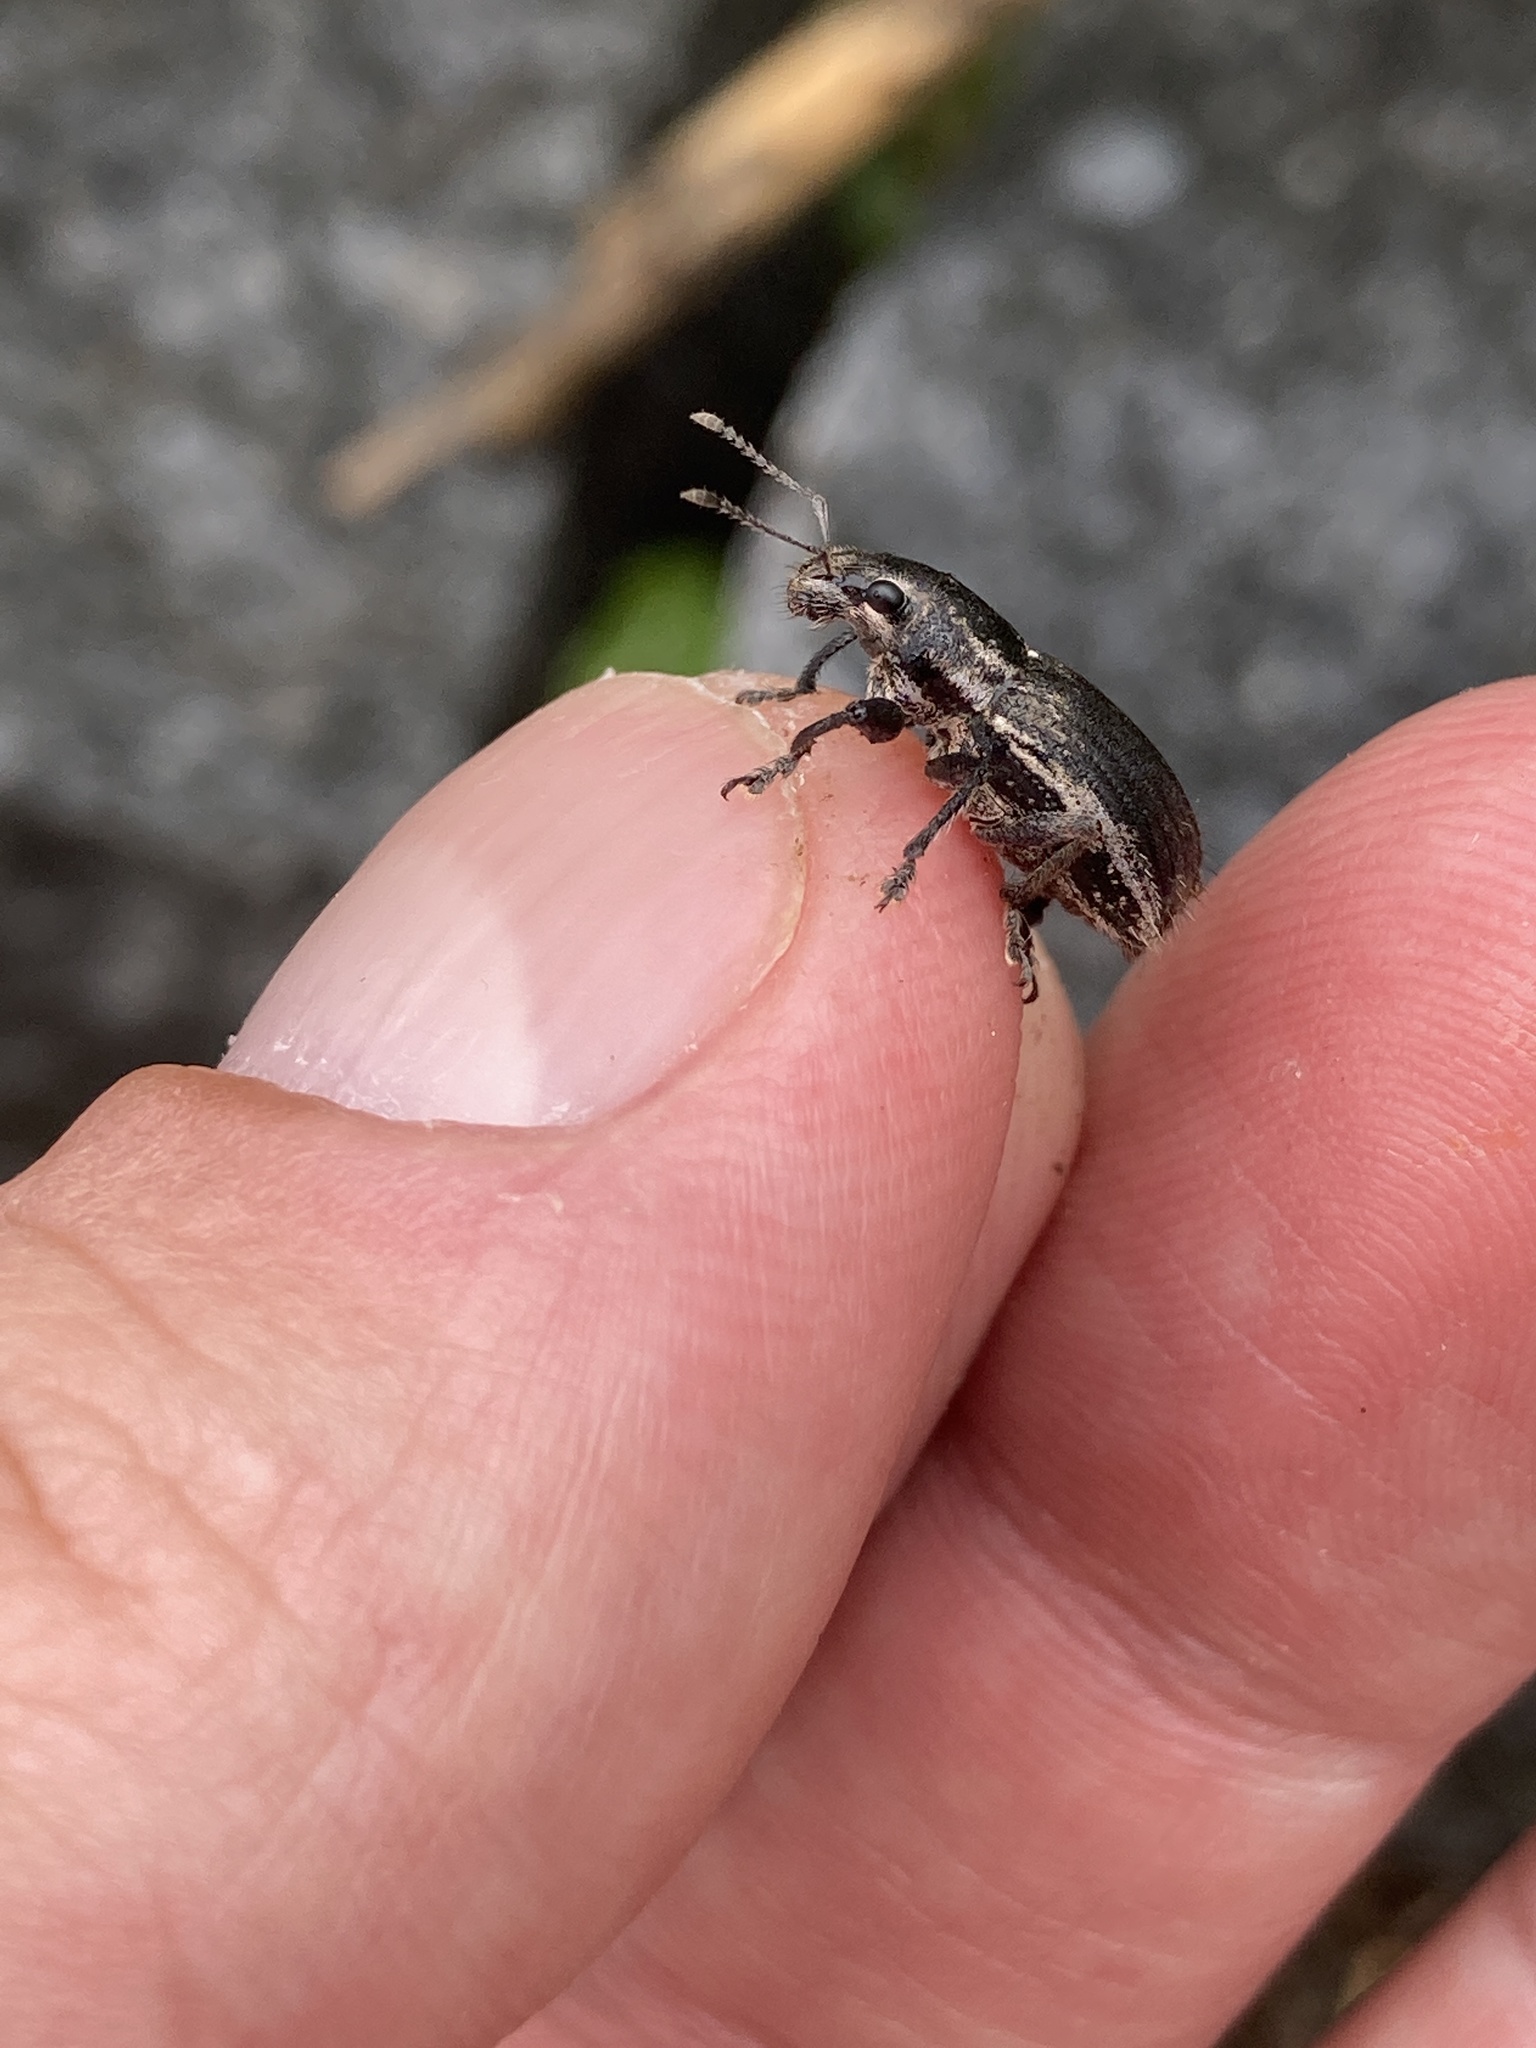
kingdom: Animalia
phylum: Arthropoda
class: Insecta
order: Coleoptera
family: Curculionidae
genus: Naupactus
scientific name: Naupactus leucoloma
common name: Whitefringed beetle
